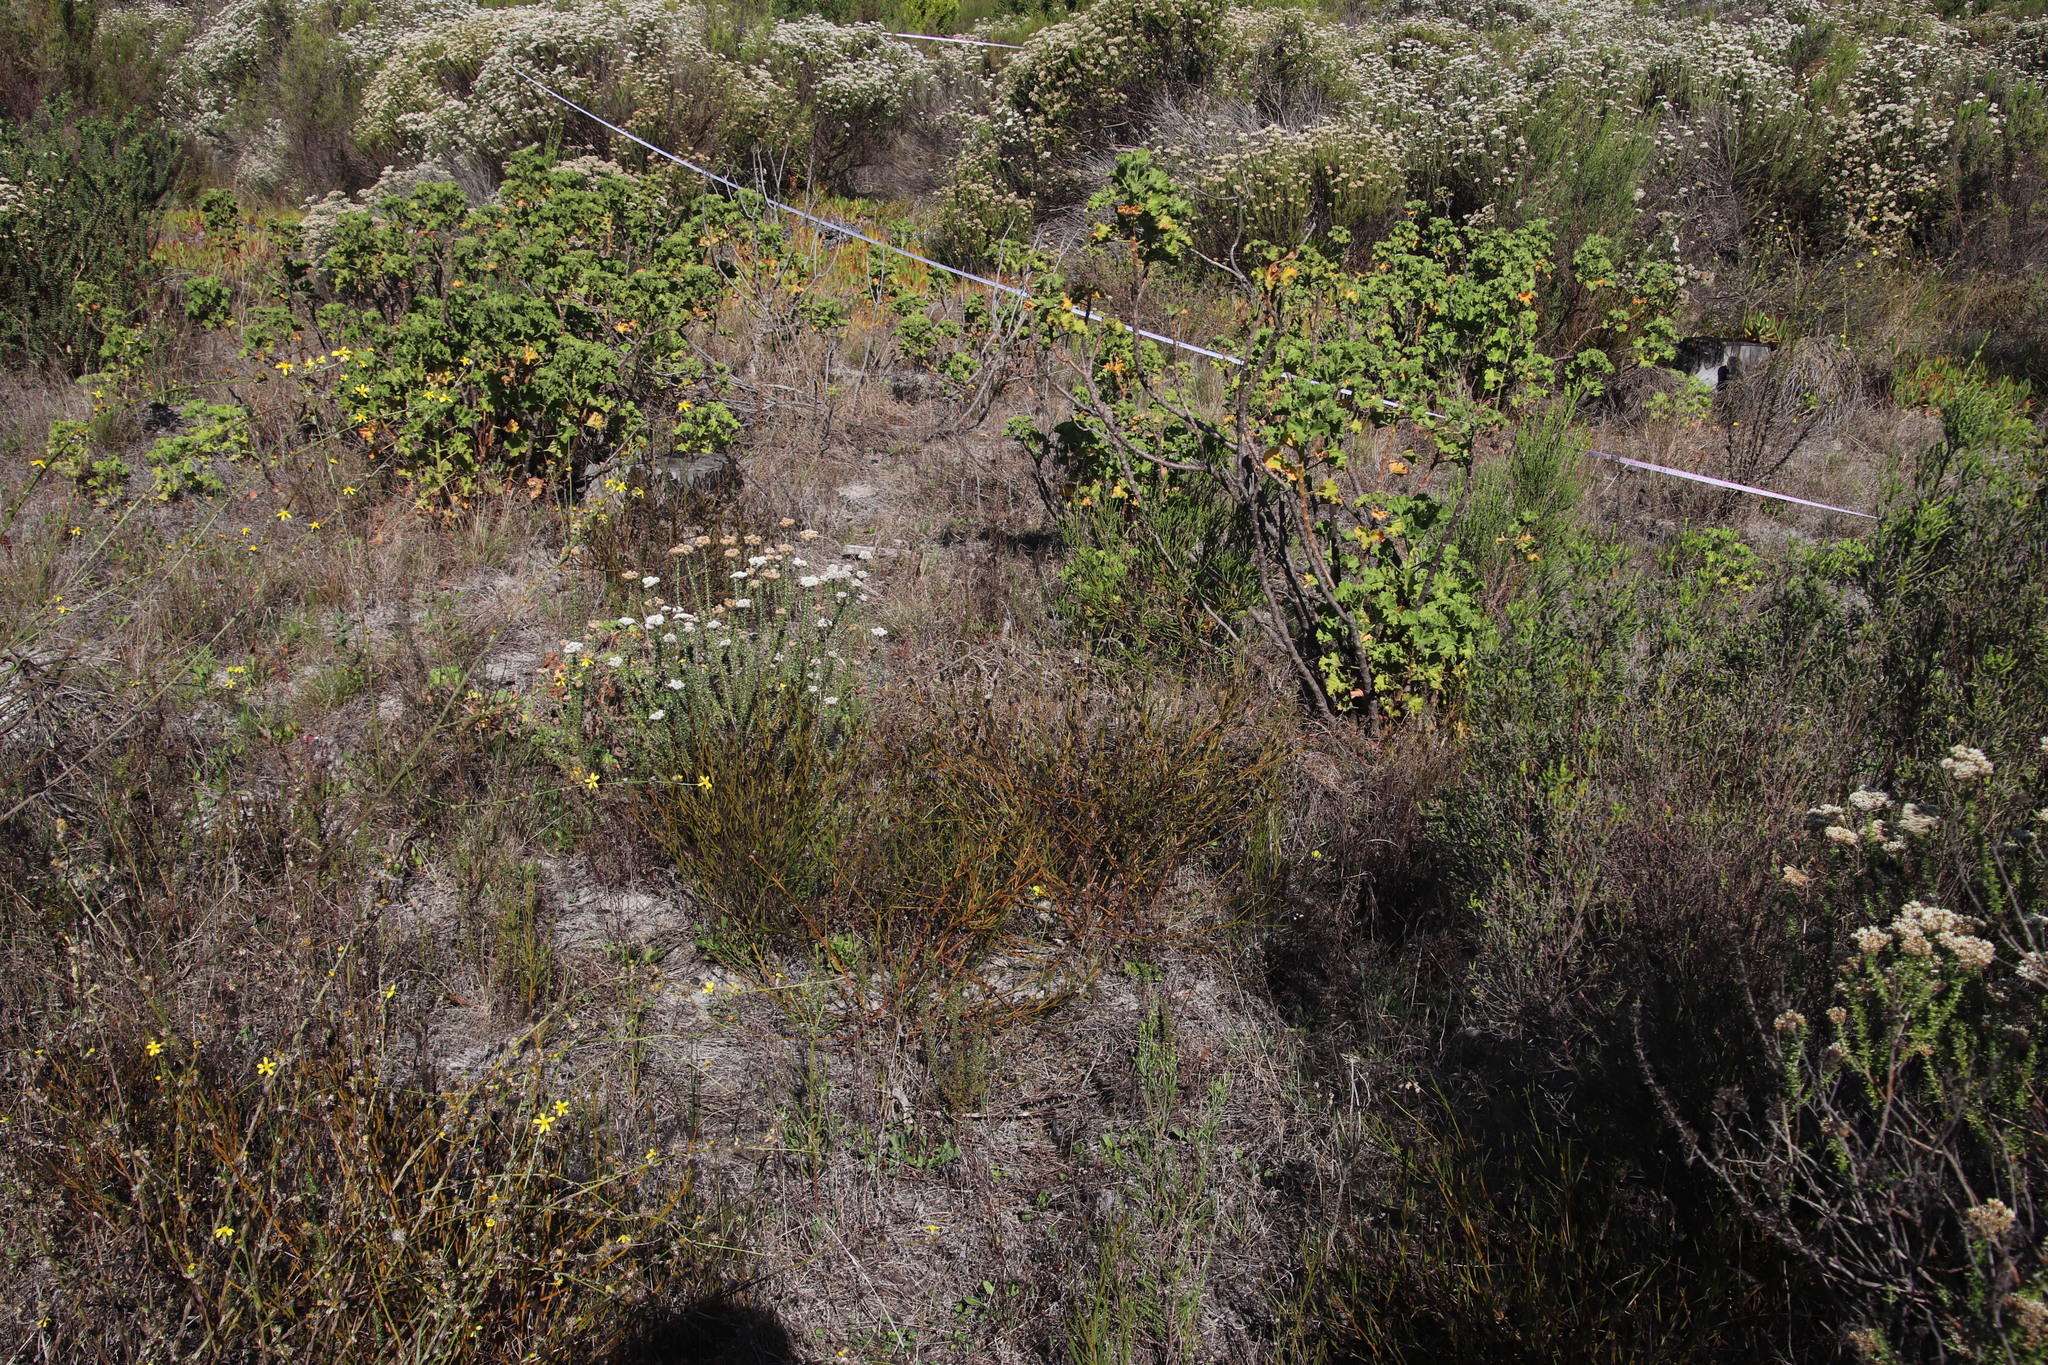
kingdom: Plantae
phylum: Tracheophyta
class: Magnoliopsida
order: Santalales
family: Thesiaceae
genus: Thesium
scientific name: Thesium virgatum
